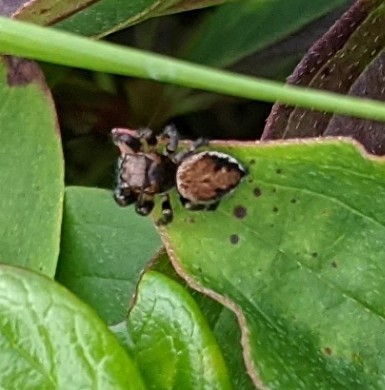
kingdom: Animalia
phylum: Arthropoda
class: Arachnida
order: Araneae
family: Salticidae
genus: Evarcha
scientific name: Evarcha hoyi
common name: Hoy's jumping spider
